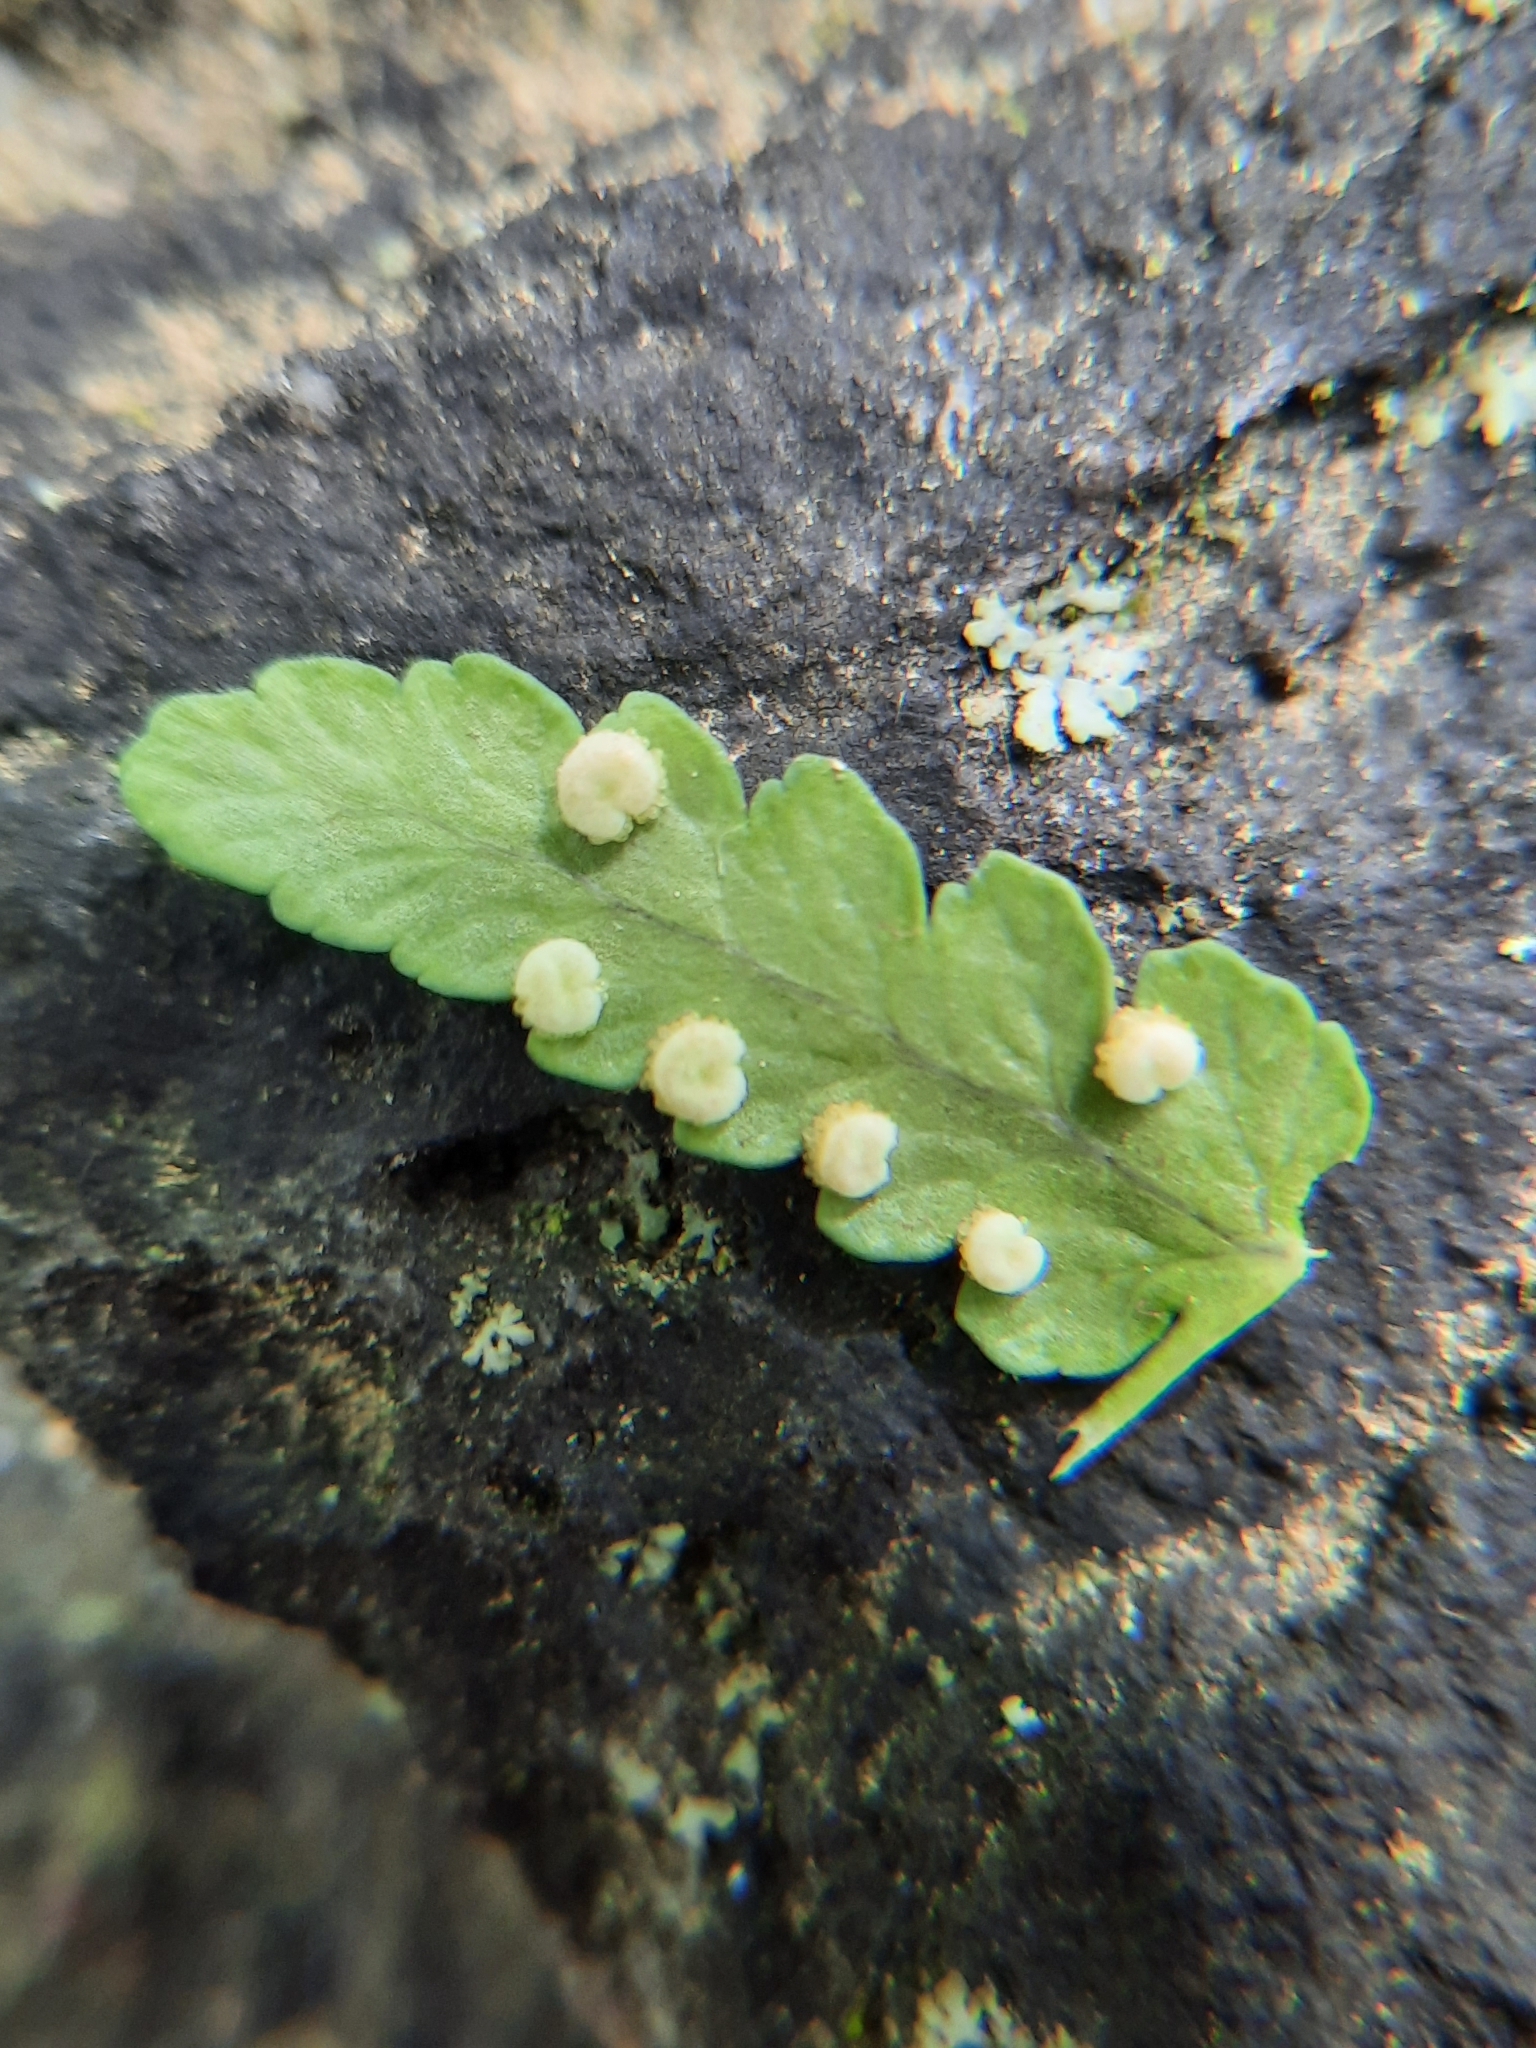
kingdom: Plantae
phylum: Tracheophyta
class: Polypodiopsida
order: Polypodiales
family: Dryopteridaceae
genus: Dryopteris
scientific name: Dryopteris marginalis
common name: Marginal wood fern
